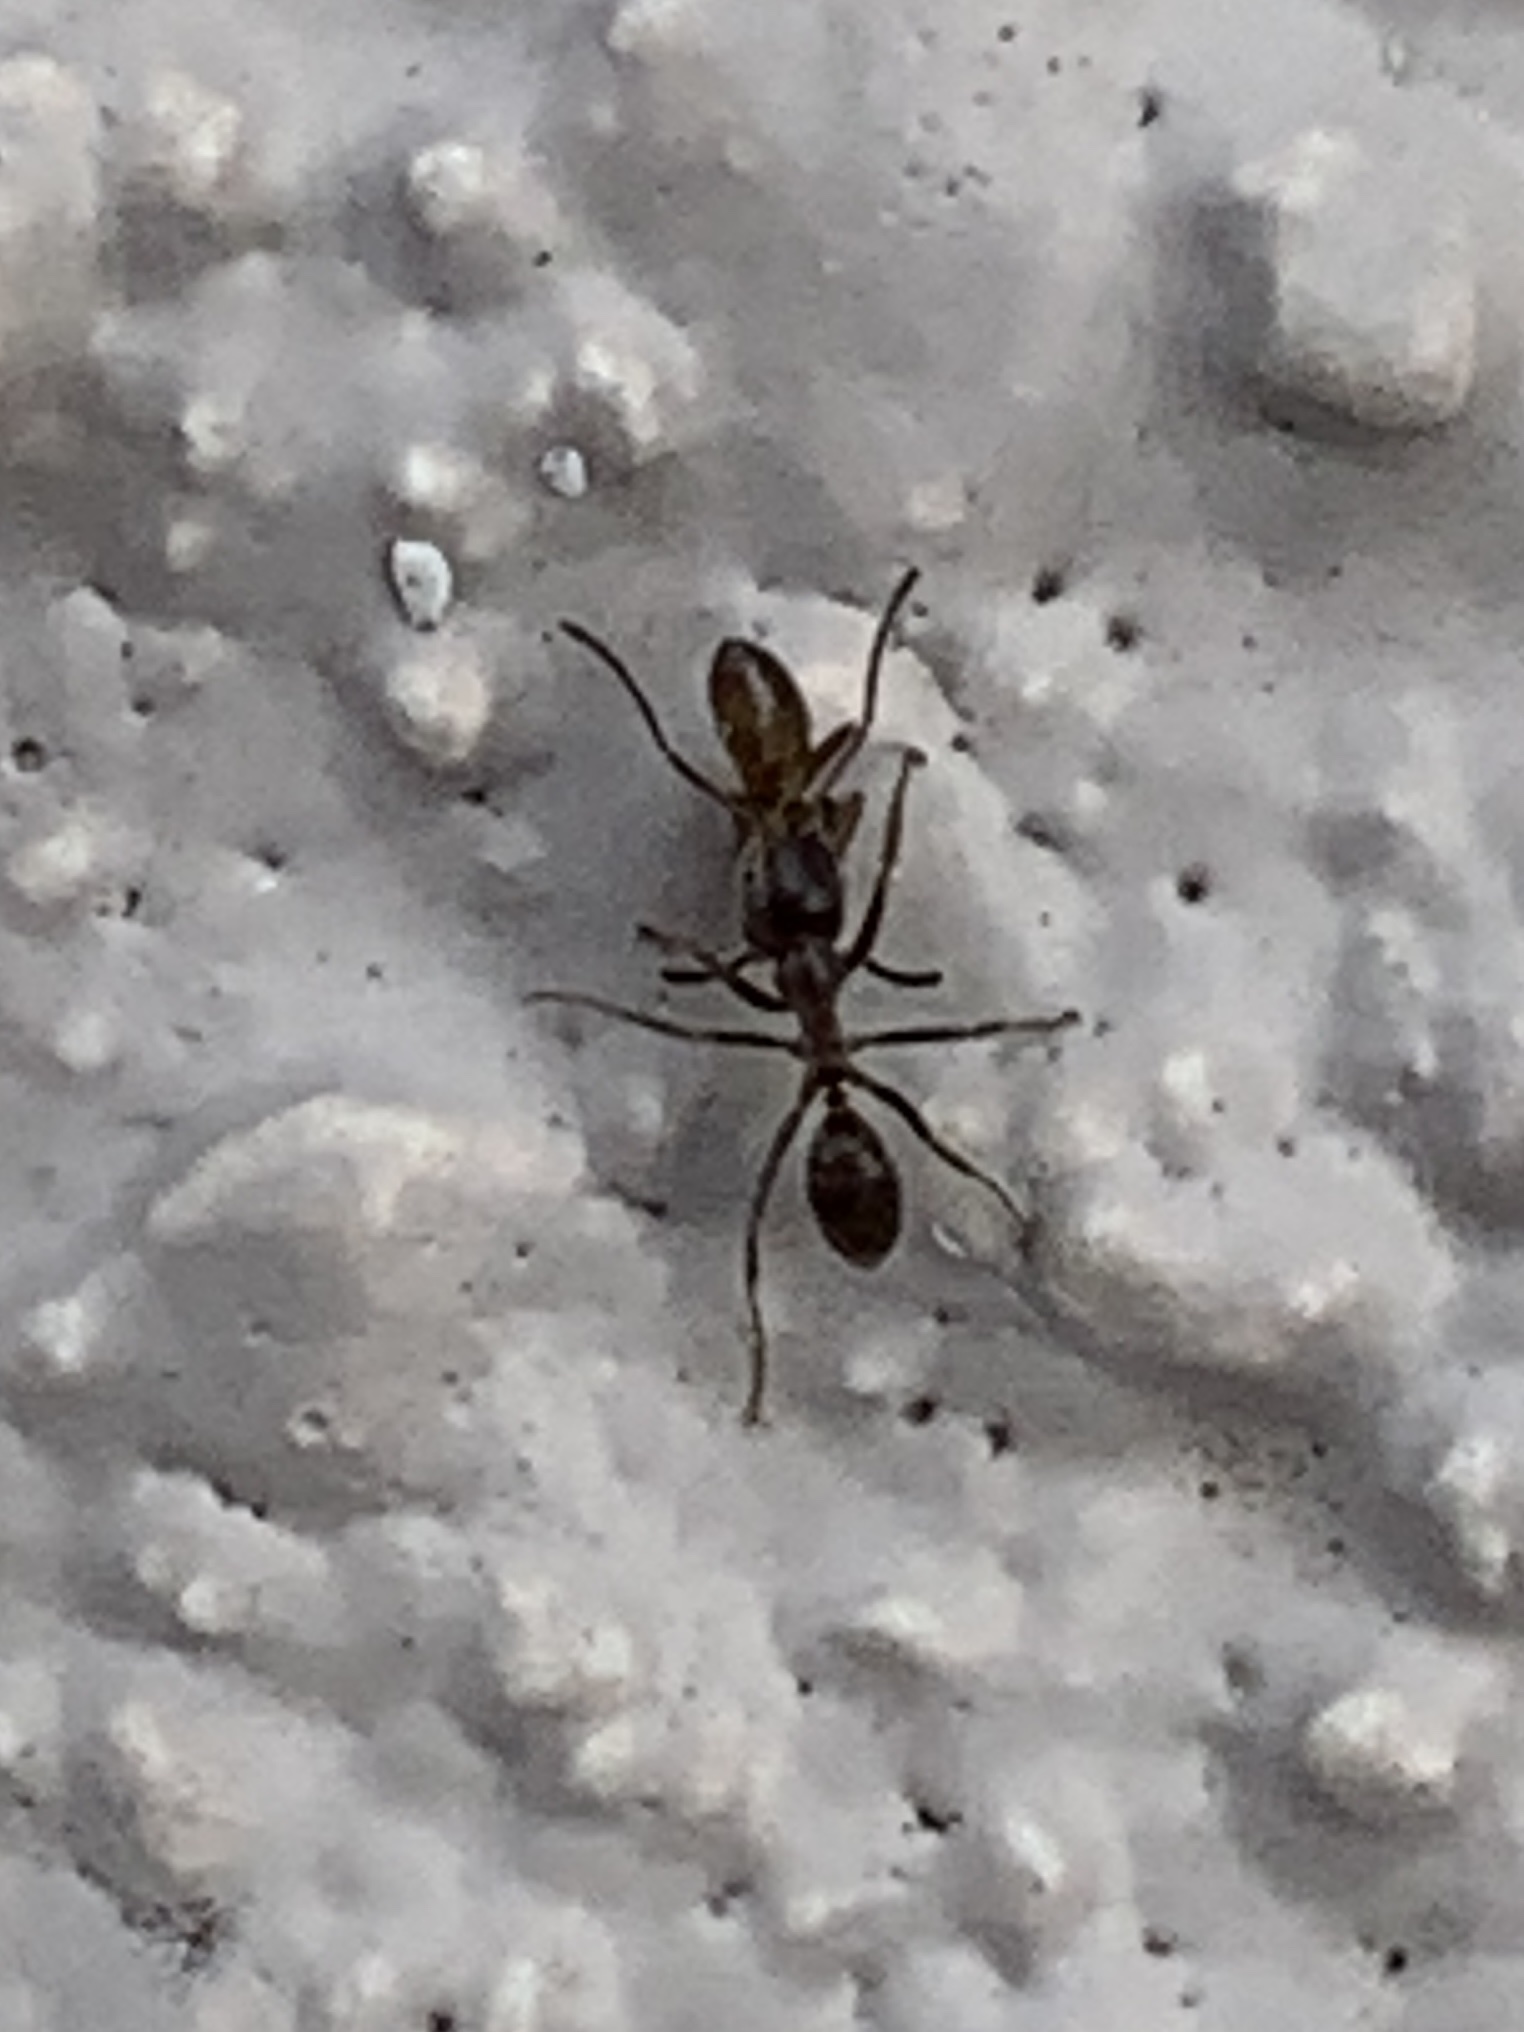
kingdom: Animalia
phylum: Arthropoda
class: Insecta
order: Hymenoptera
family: Formicidae
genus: Linepithema
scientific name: Linepithema humile
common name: Argentine ant
